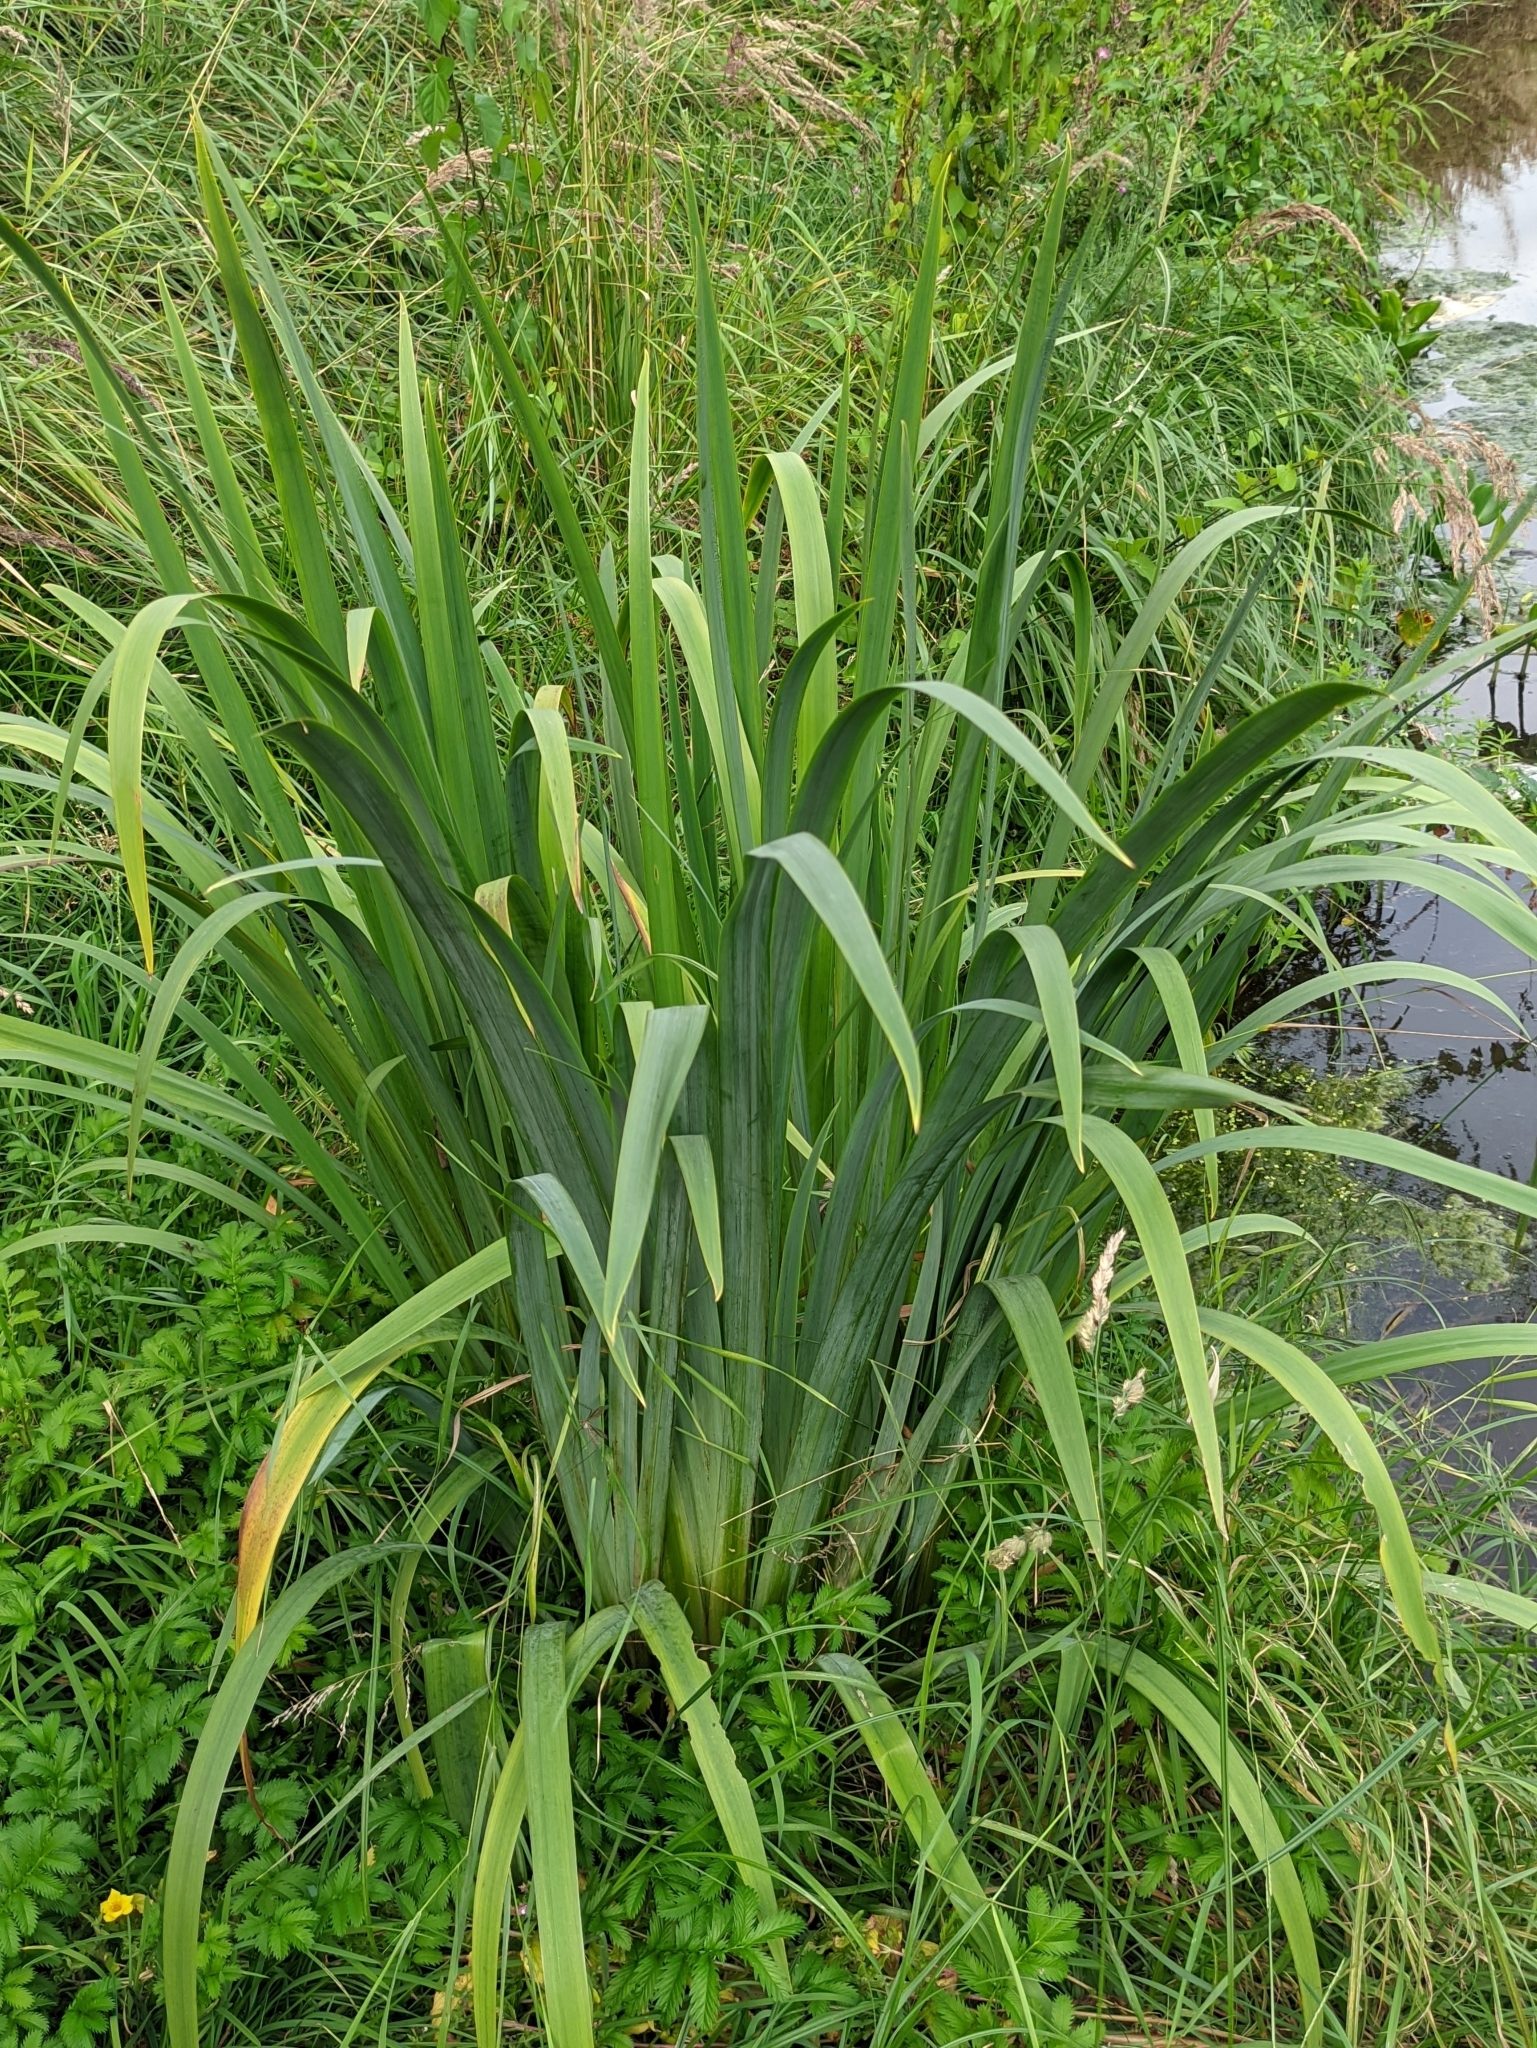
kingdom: Plantae
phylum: Tracheophyta
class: Liliopsida
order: Asparagales
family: Iridaceae
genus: Iris
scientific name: Iris pseudacorus
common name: Yellow flag
